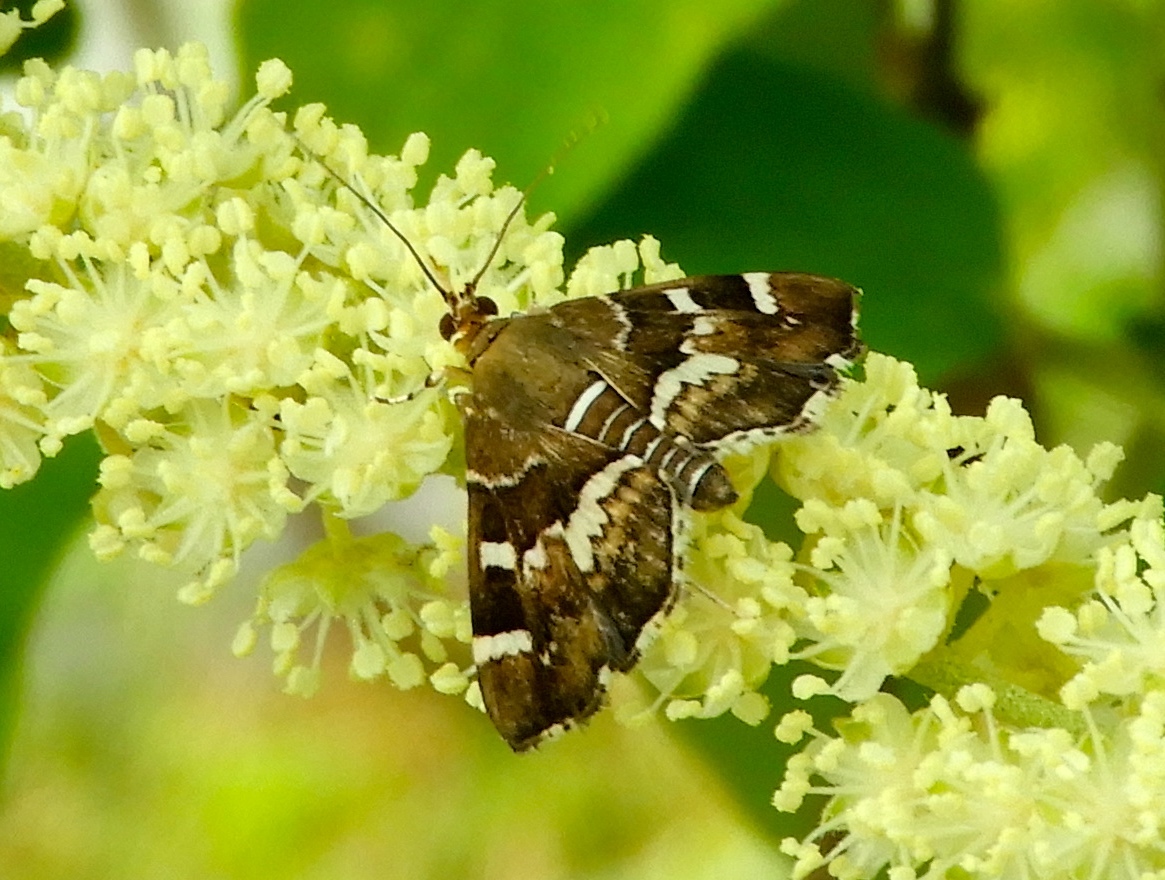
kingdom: Animalia
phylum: Arthropoda
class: Insecta
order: Lepidoptera
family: Crambidae
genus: Hymenia
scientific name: Hymenia perspectalis
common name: Spotted beet webworm
